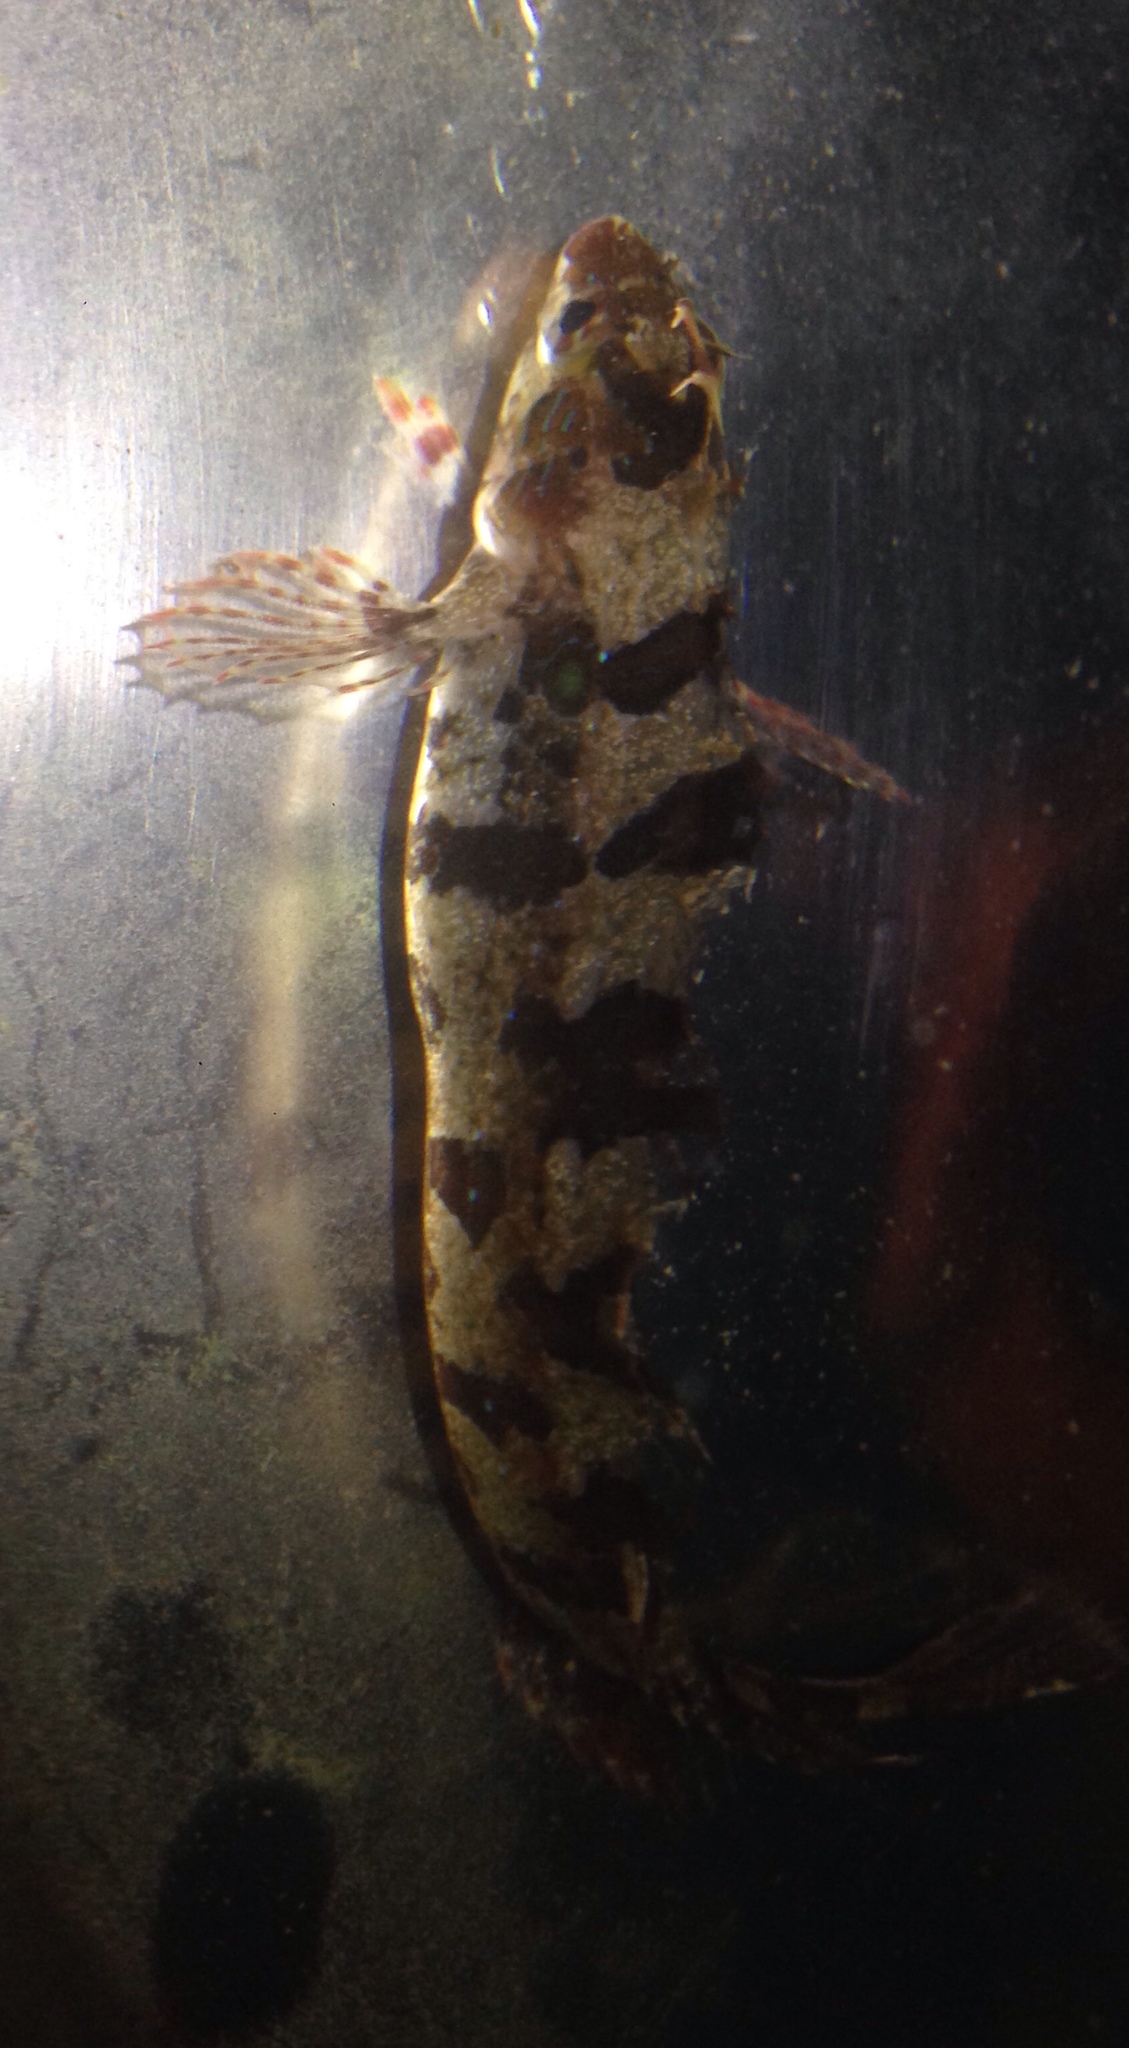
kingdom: Animalia
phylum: Chordata
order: Perciformes
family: Clinidae
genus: Gibbonsia
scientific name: Gibbonsia elegans
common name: Spotted kelpfish
